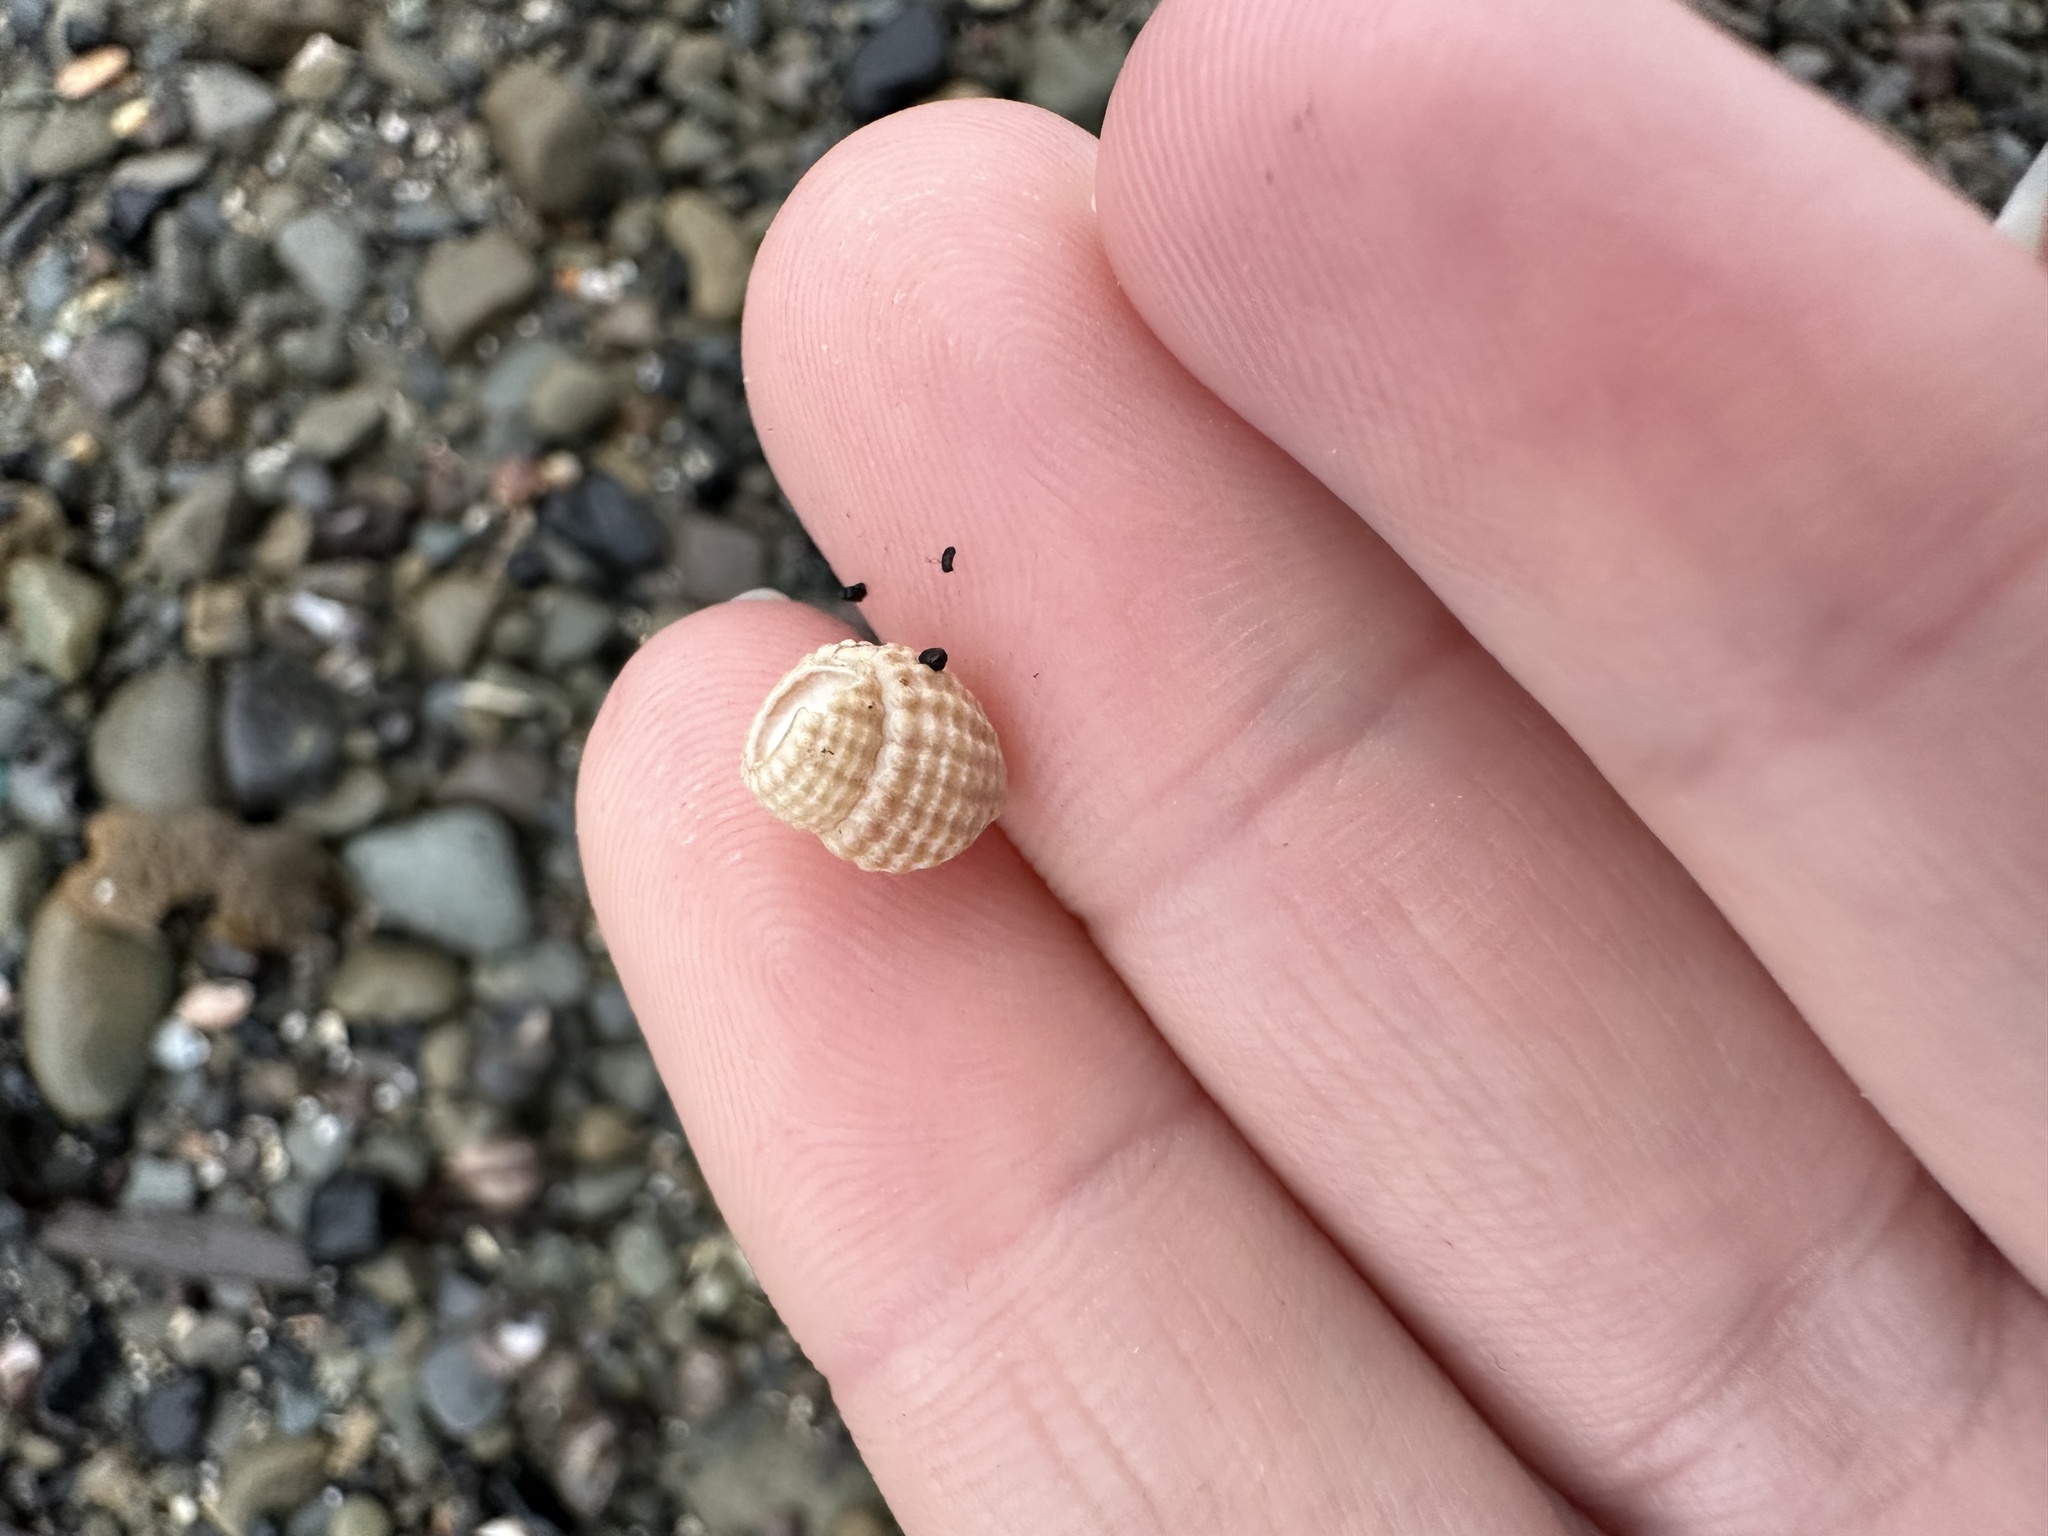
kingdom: Animalia
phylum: Mollusca
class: Gastropoda
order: Neogastropoda
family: Nassariidae
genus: Ilyanassa
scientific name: Ilyanassa trivittata
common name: Three-line mudsnail
